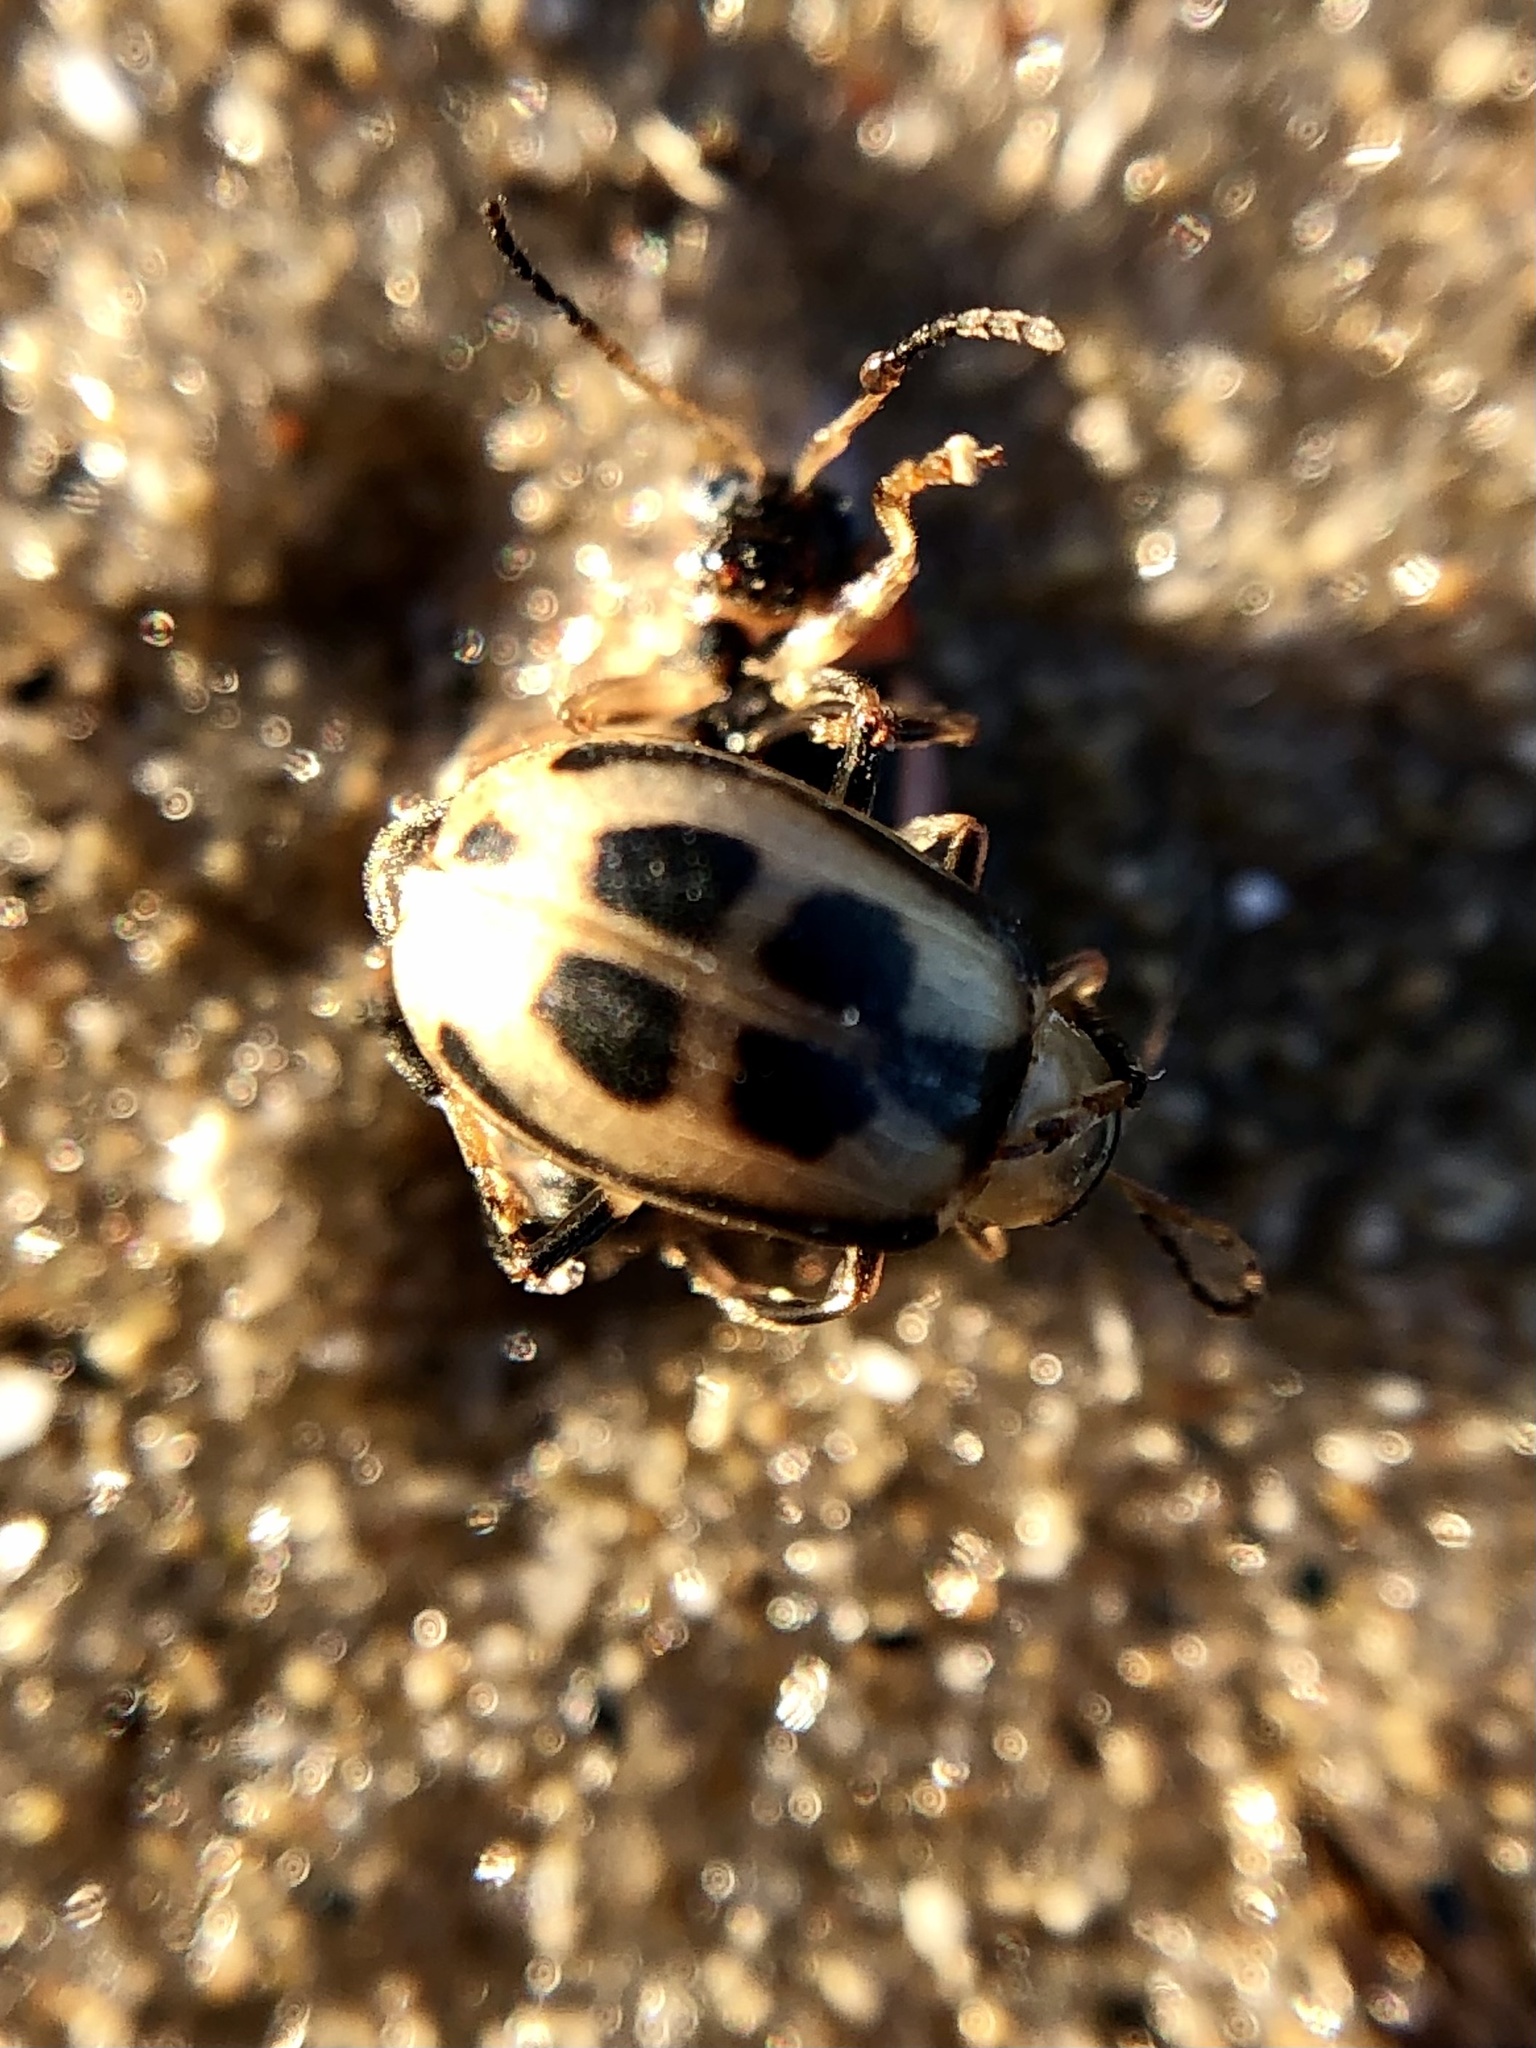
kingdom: Animalia
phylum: Arthropoda
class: Insecta
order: Coleoptera
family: Chrysomelidae
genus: Cerotoma
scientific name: Cerotoma trifurcata
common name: Bean leaf beetle
